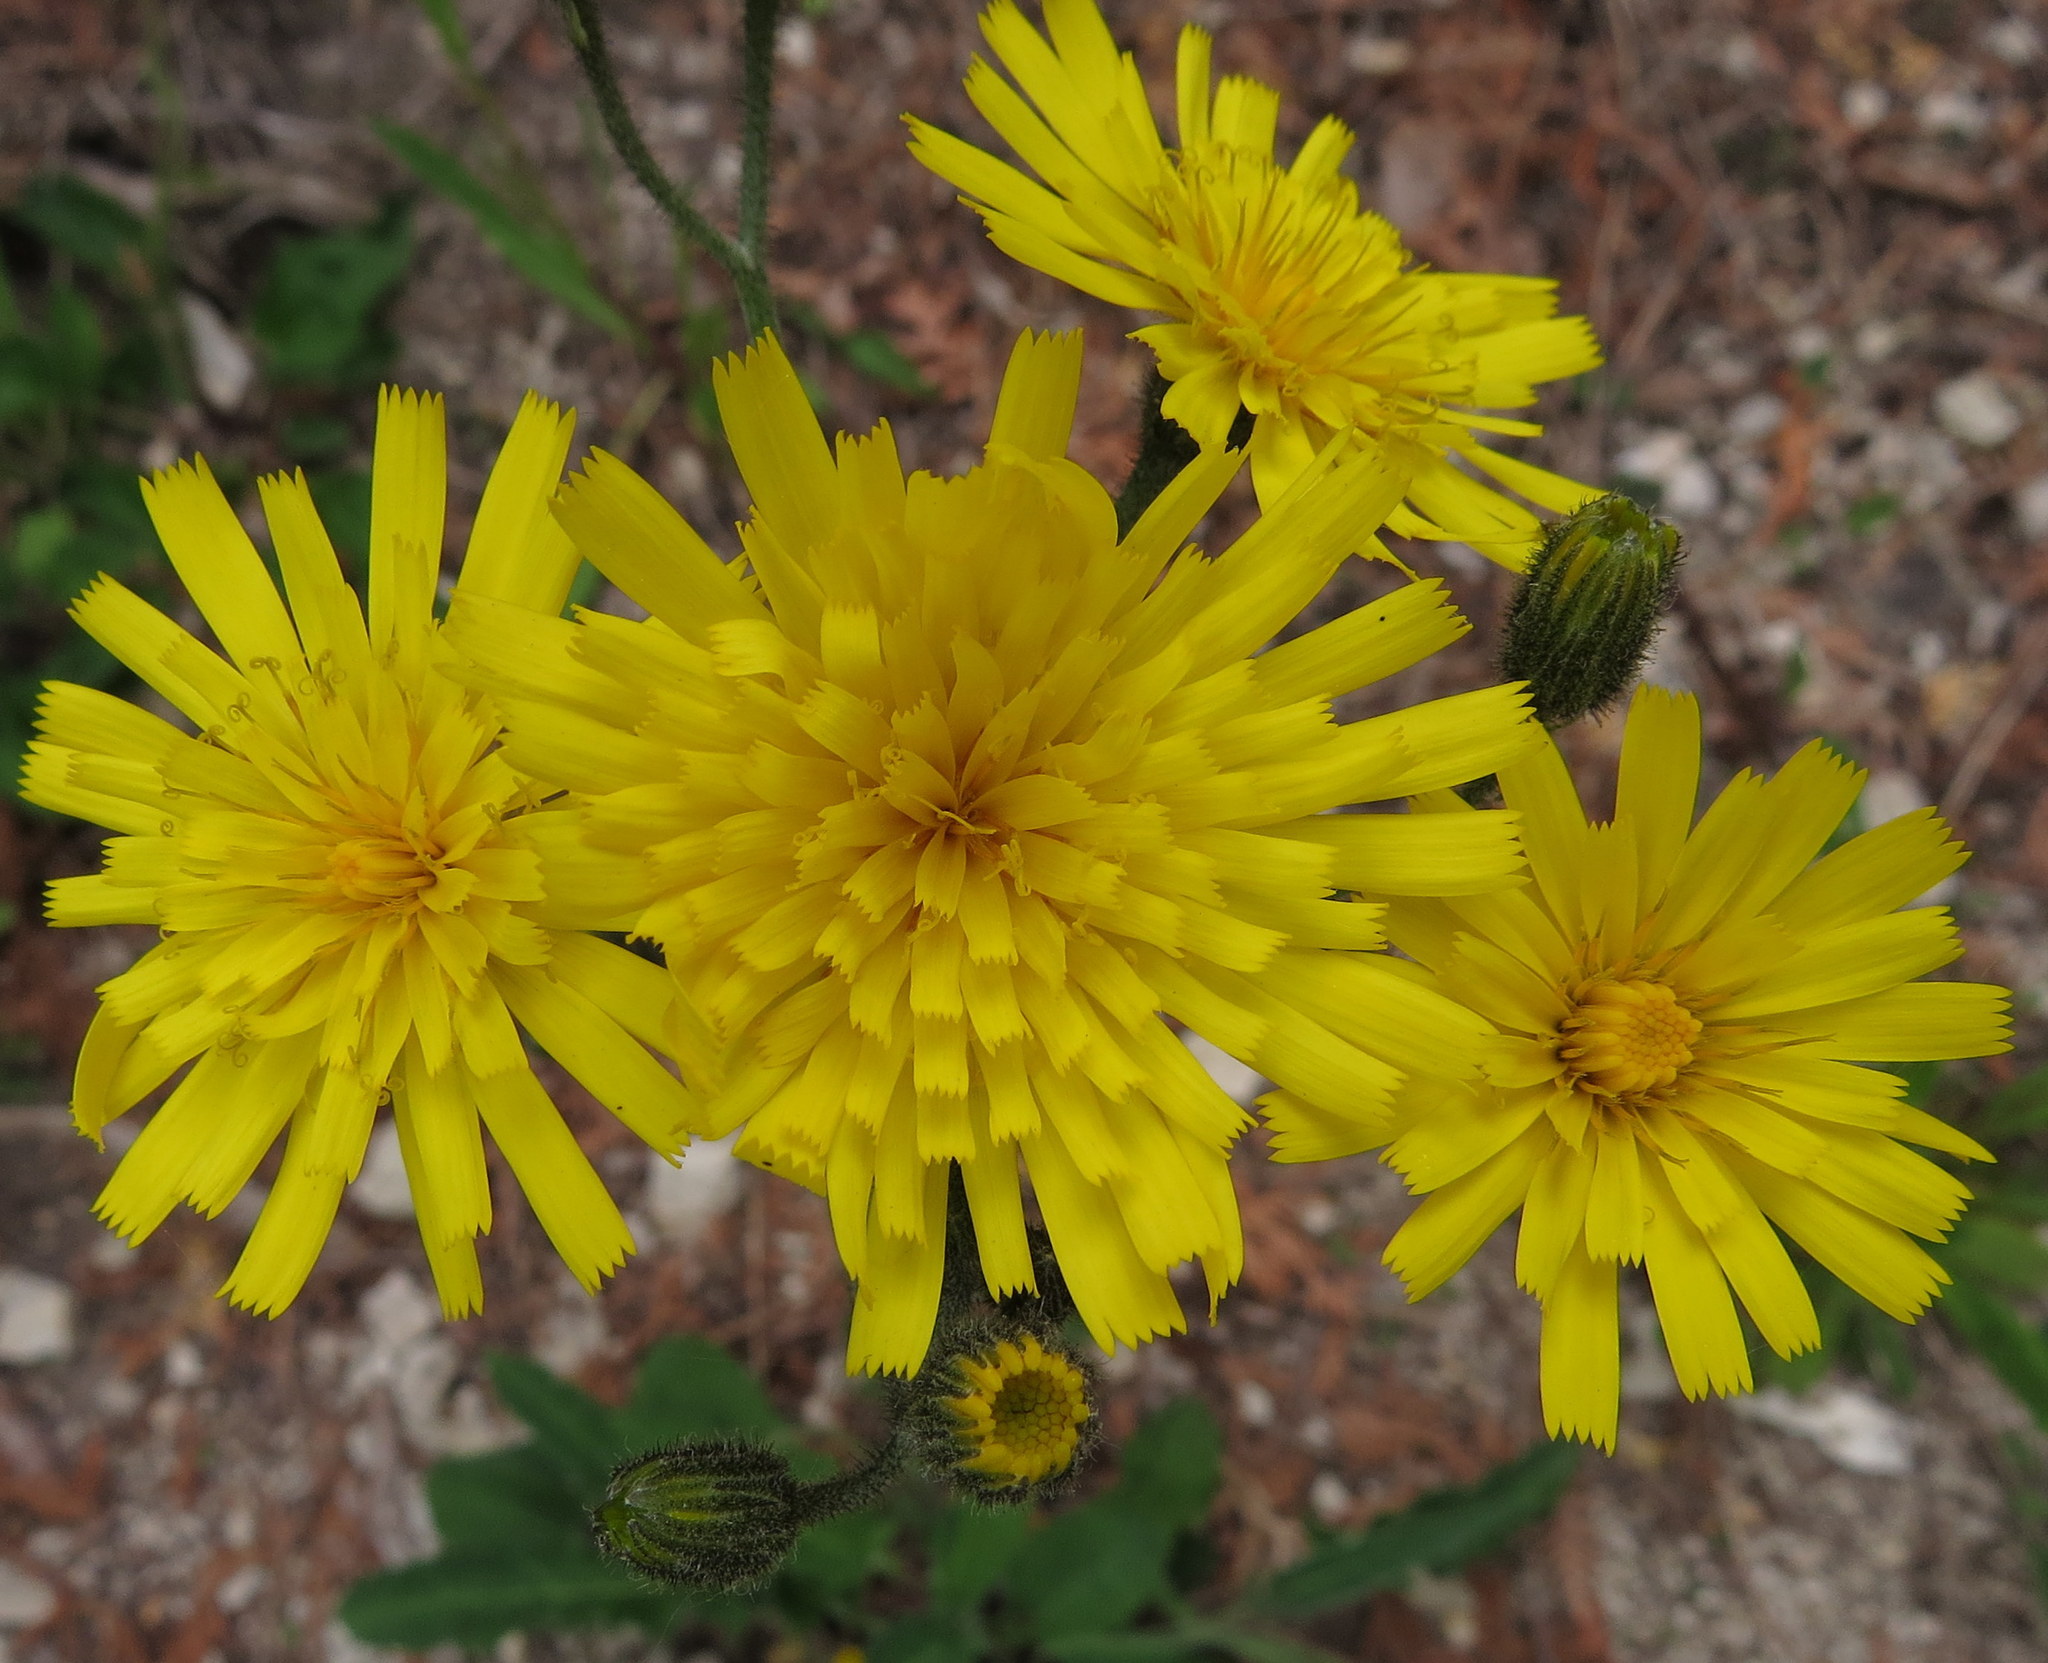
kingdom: Plantae
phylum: Tracheophyta
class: Magnoliopsida
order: Asterales
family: Asteraceae
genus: Hieracium
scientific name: Hieracium murorum
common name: Wall hawkweed
